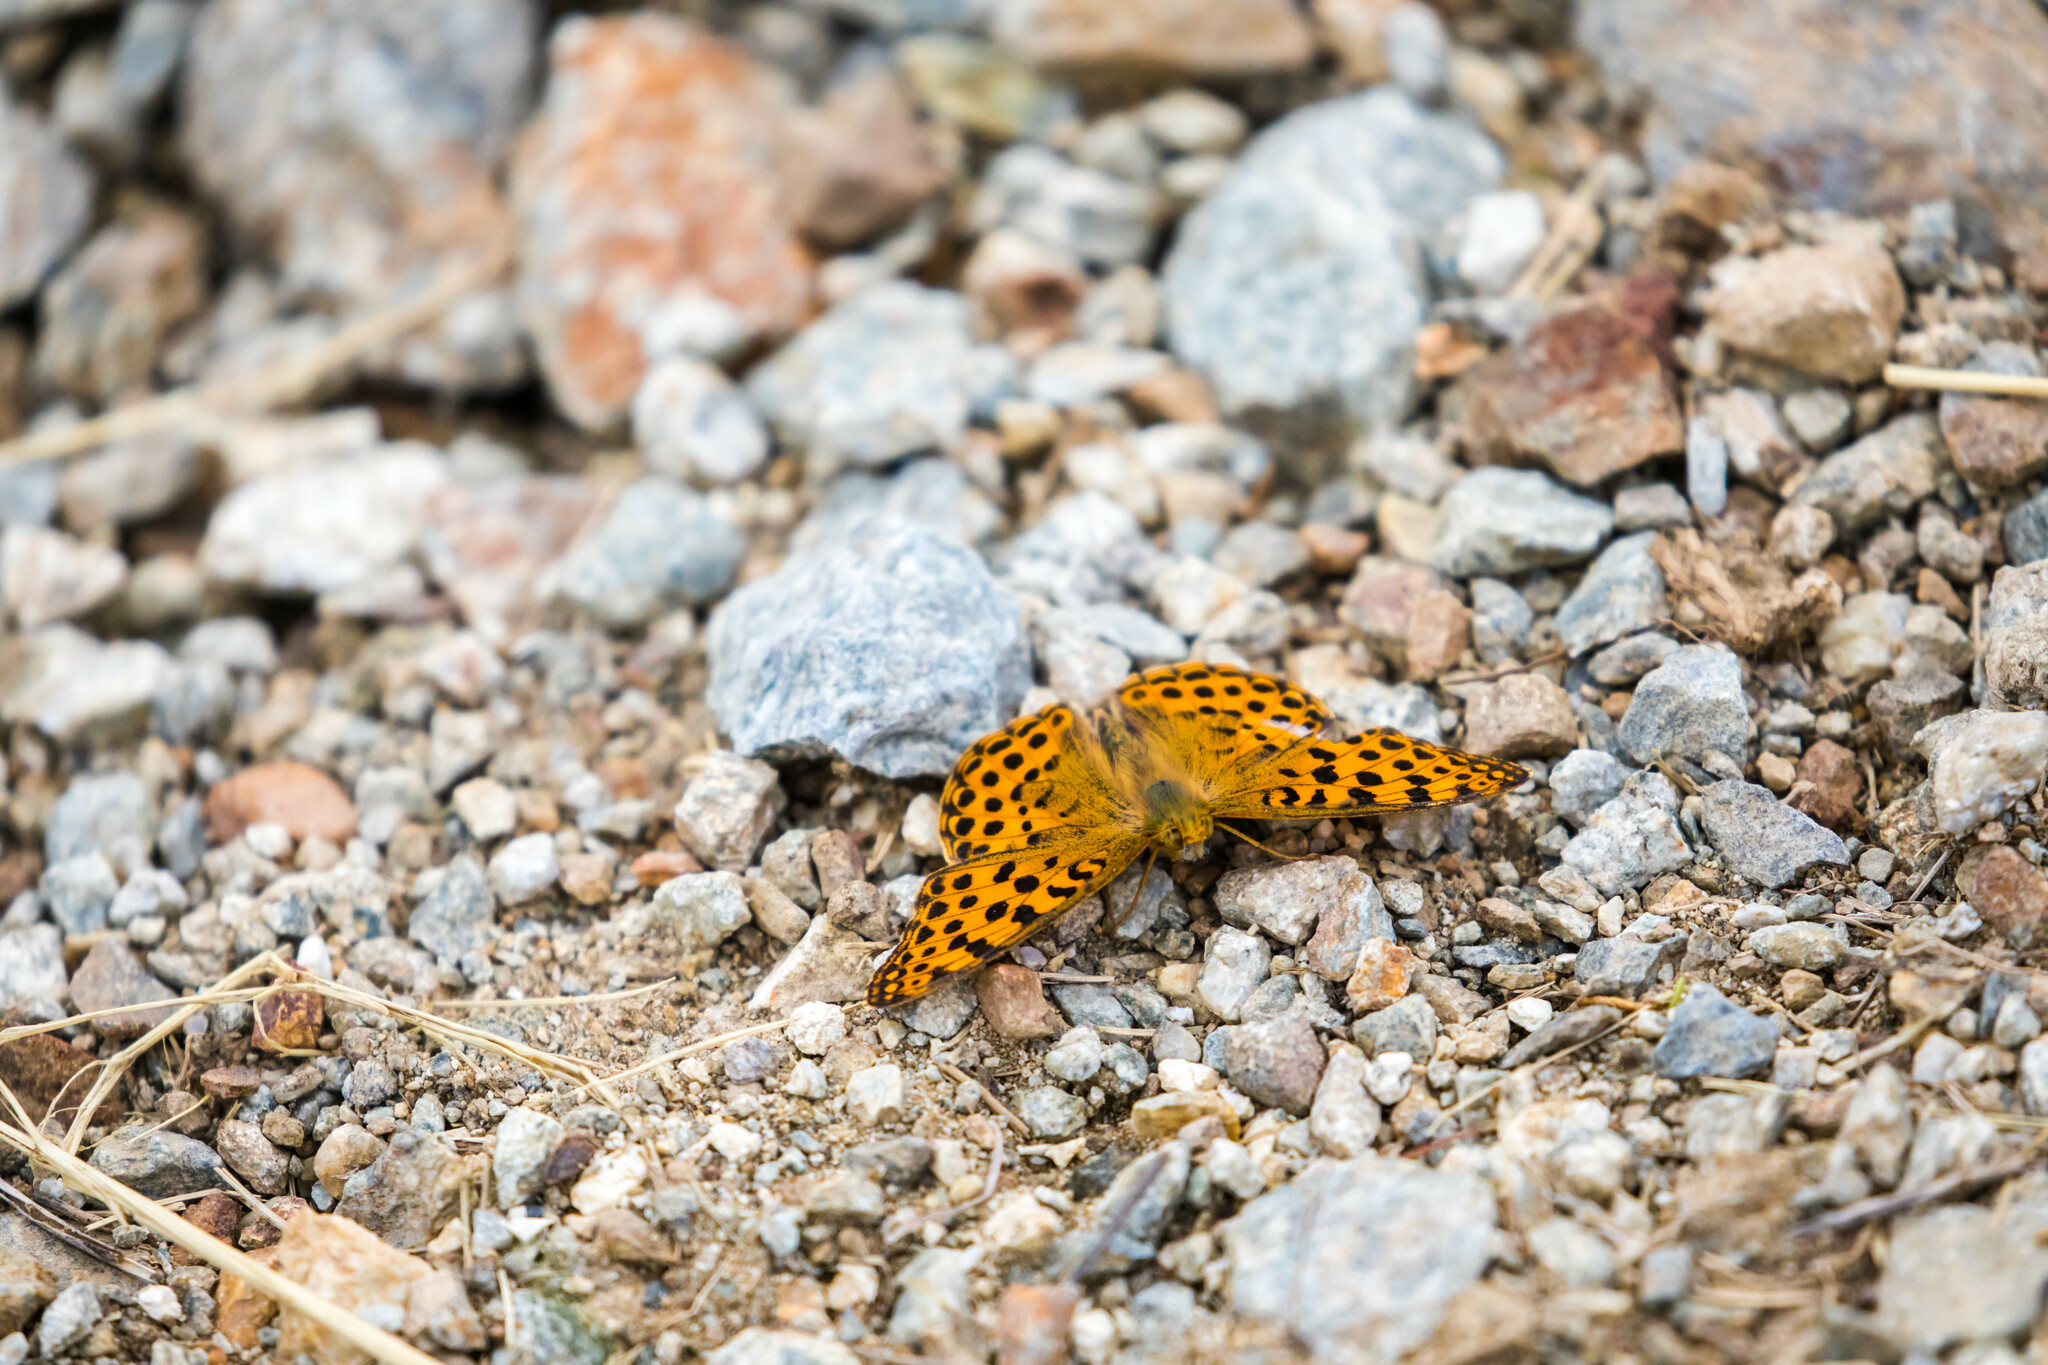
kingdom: Animalia
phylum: Arthropoda
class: Insecta
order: Lepidoptera
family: Nymphalidae
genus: Issoria
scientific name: Issoria lathonia
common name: Queen of spain fritillary
